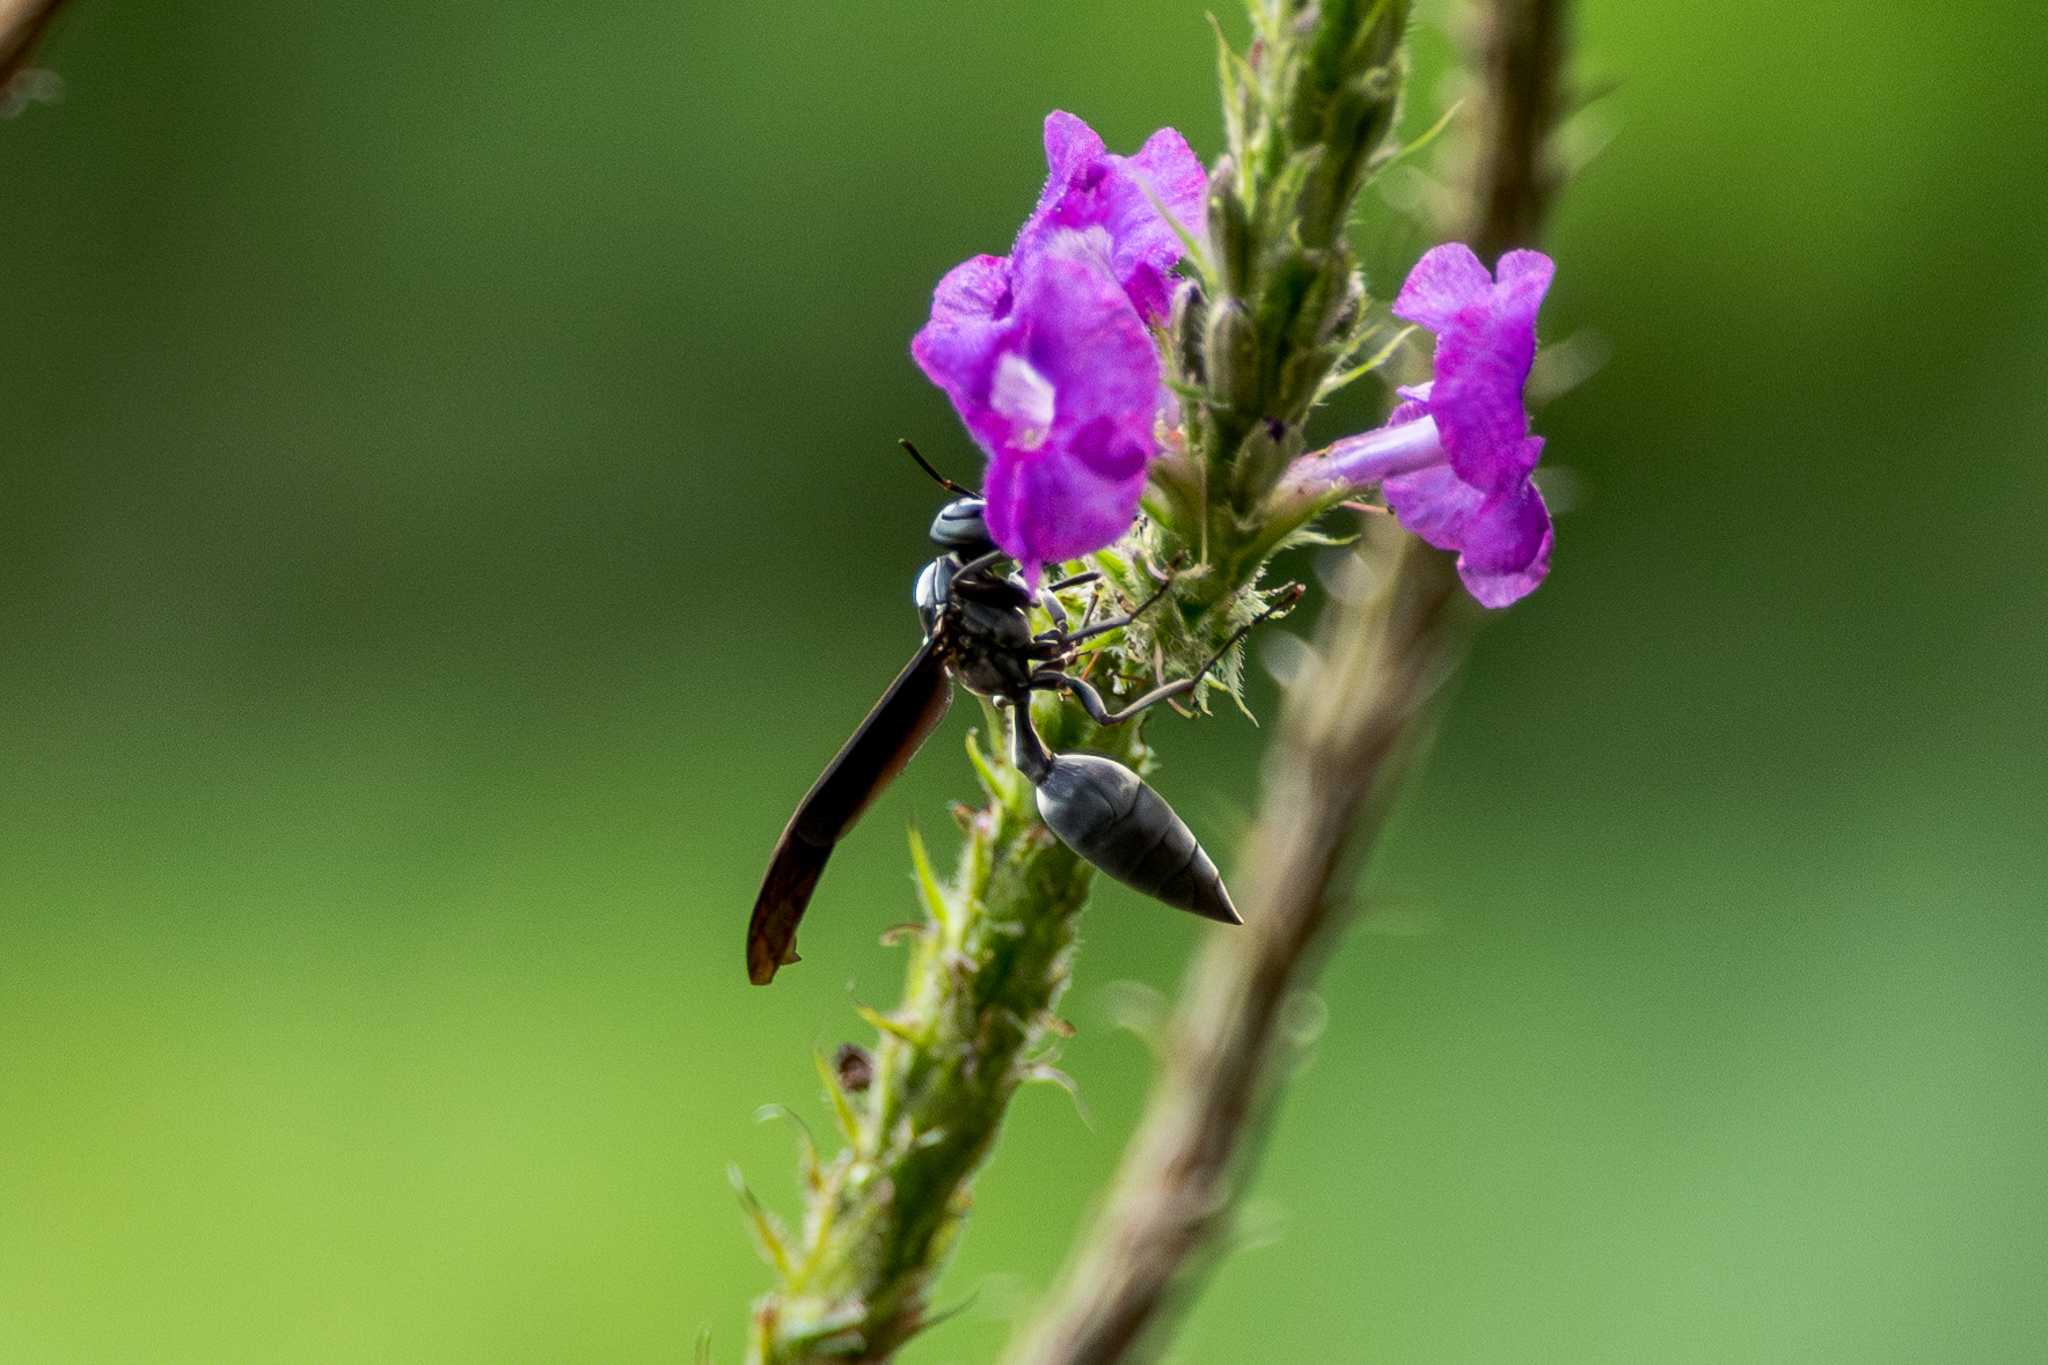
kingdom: Animalia
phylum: Arthropoda
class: Insecta
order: Hymenoptera
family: Vespidae
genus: Synoeca
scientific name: Synoeca septentrionalis
